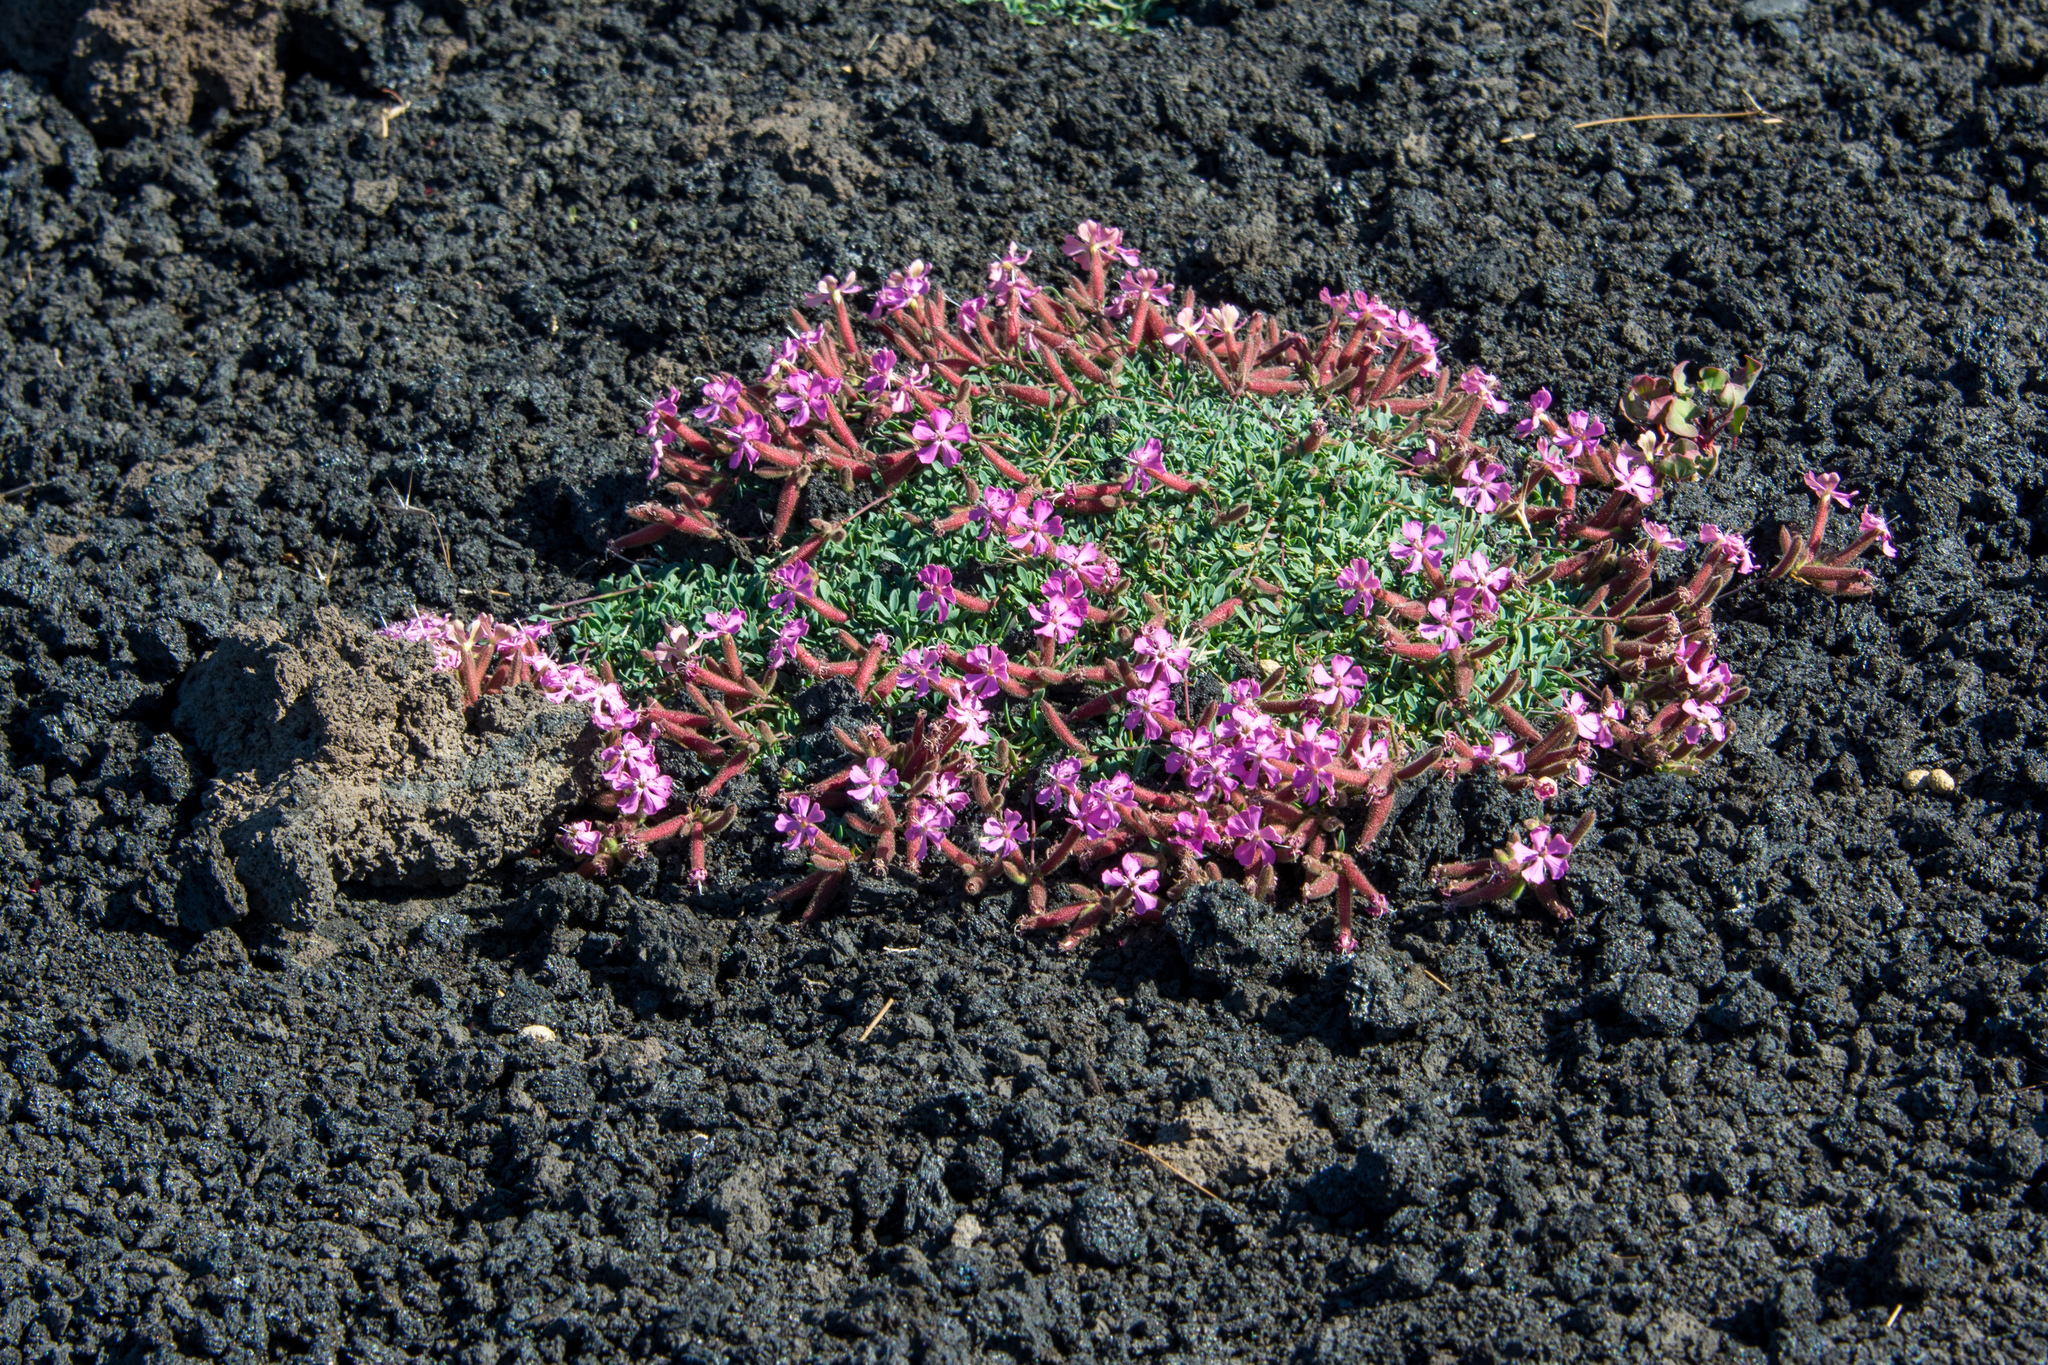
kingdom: Plantae
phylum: Tracheophyta
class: Magnoliopsida
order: Caryophyllales
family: Caryophyllaceae
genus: Saponaria
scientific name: Saponaria sicula
